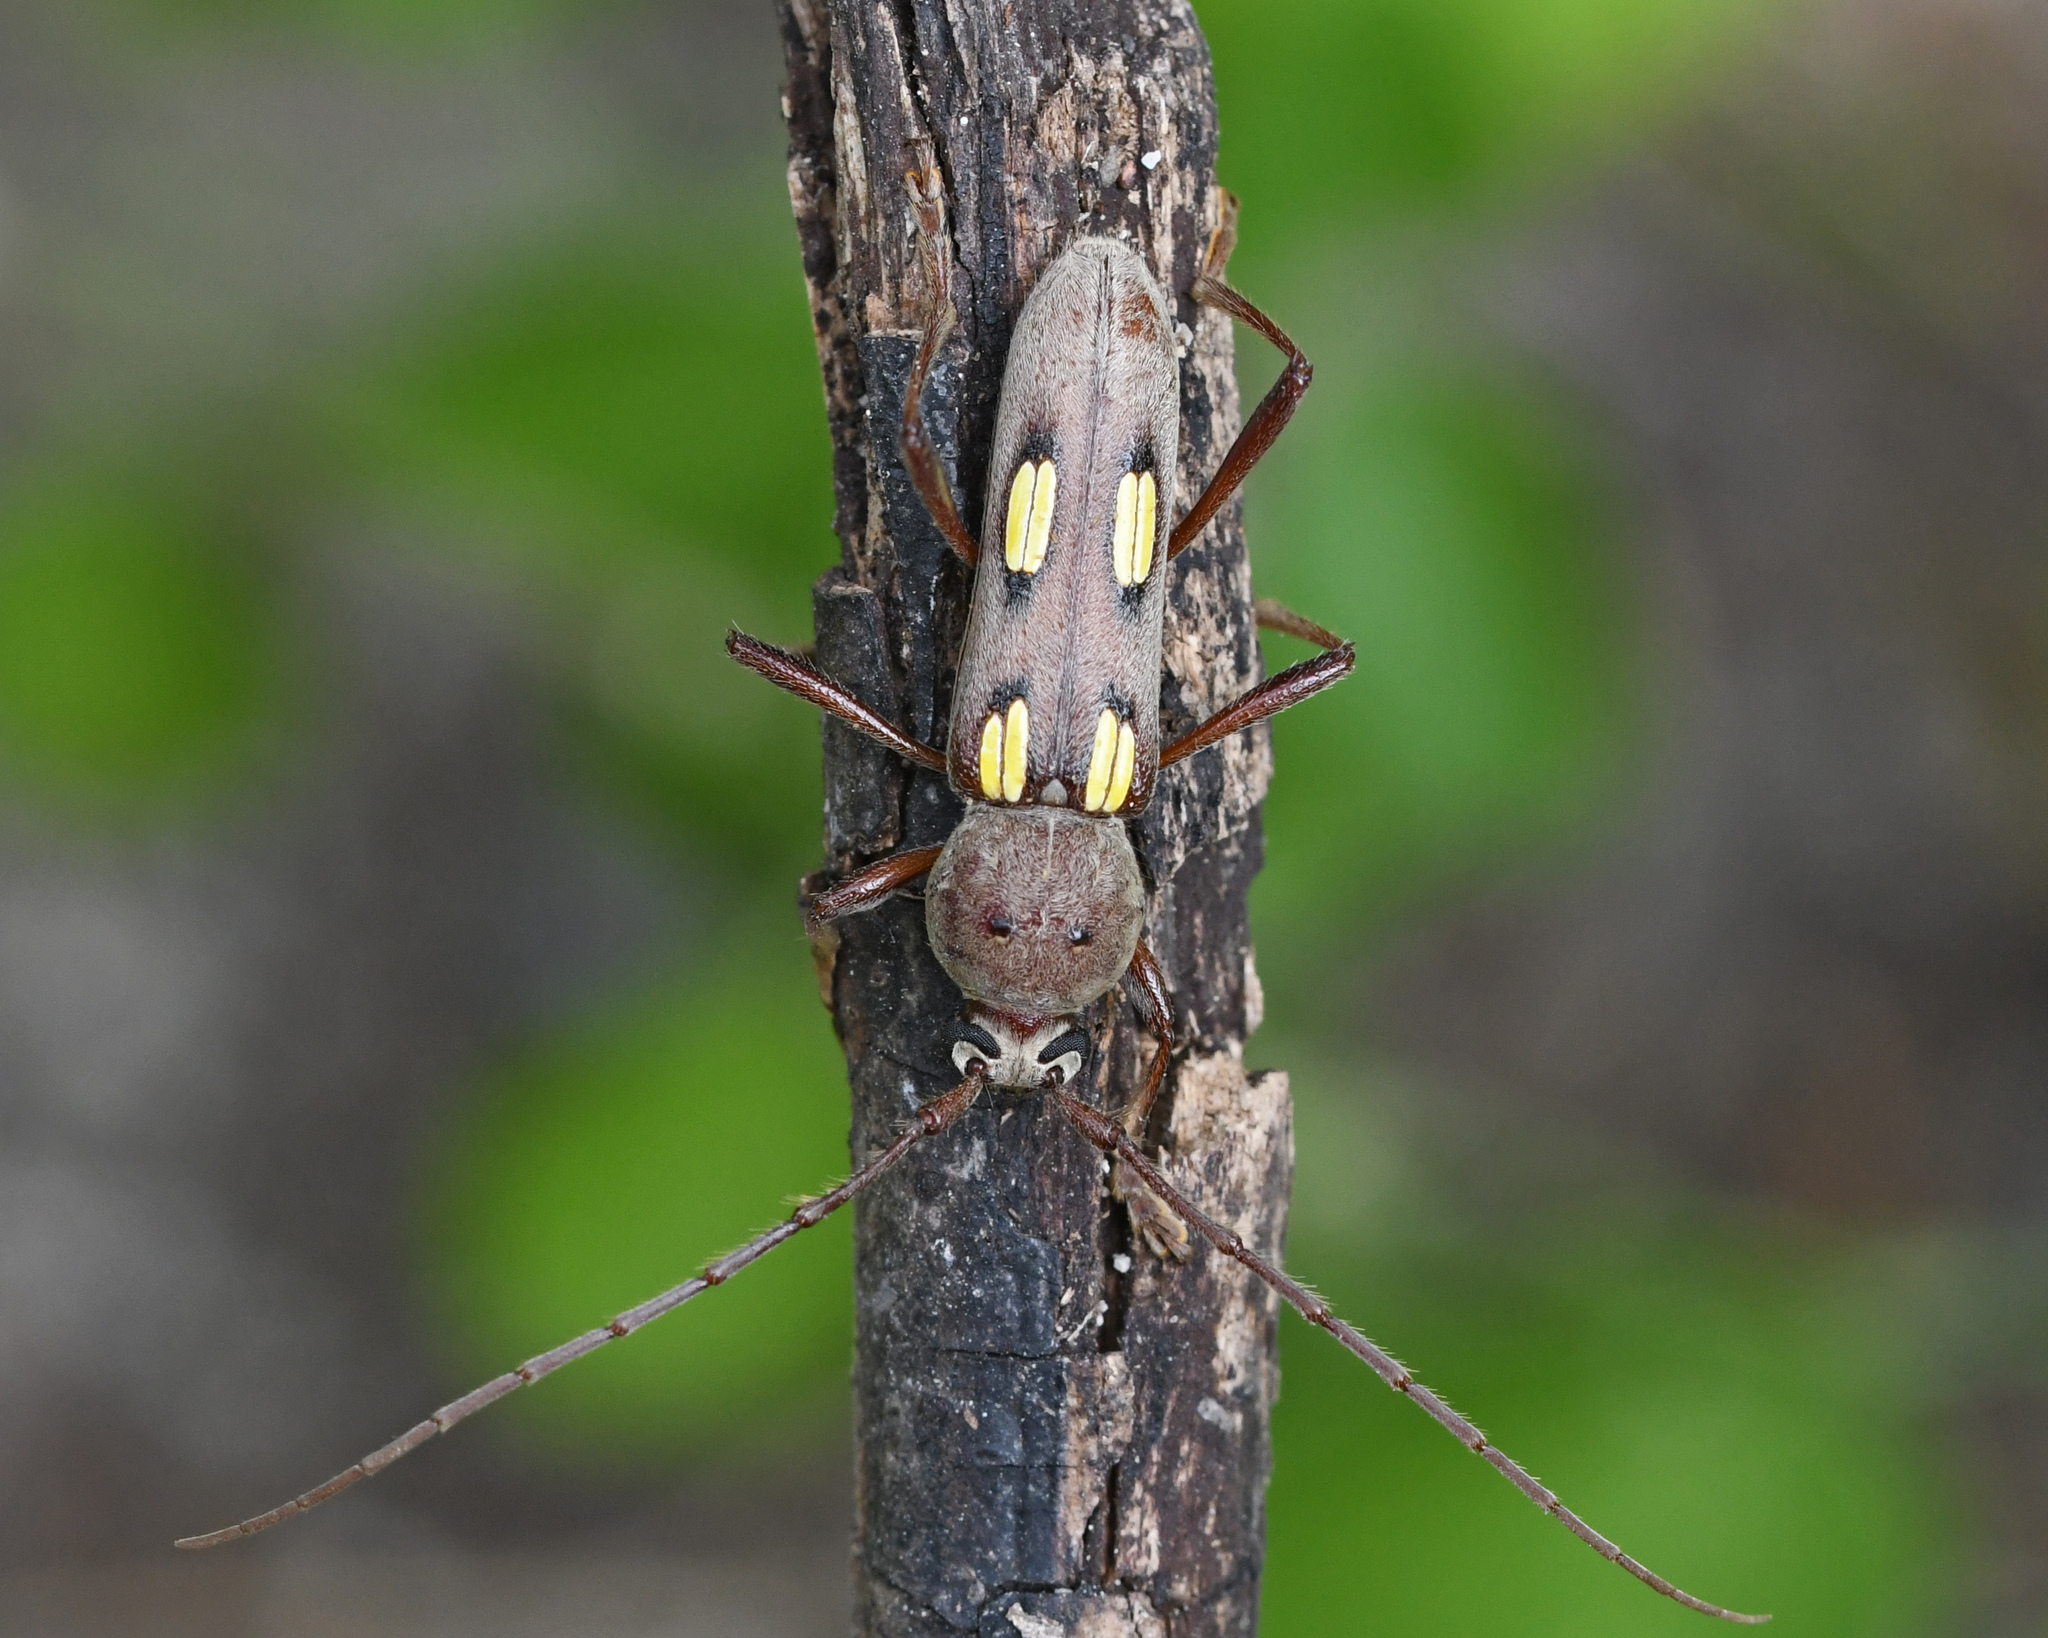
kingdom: Animalia
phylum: Arthropoda
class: Insecta
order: Coleoptera
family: Cerambycidae
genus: Eburia
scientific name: Eburia
